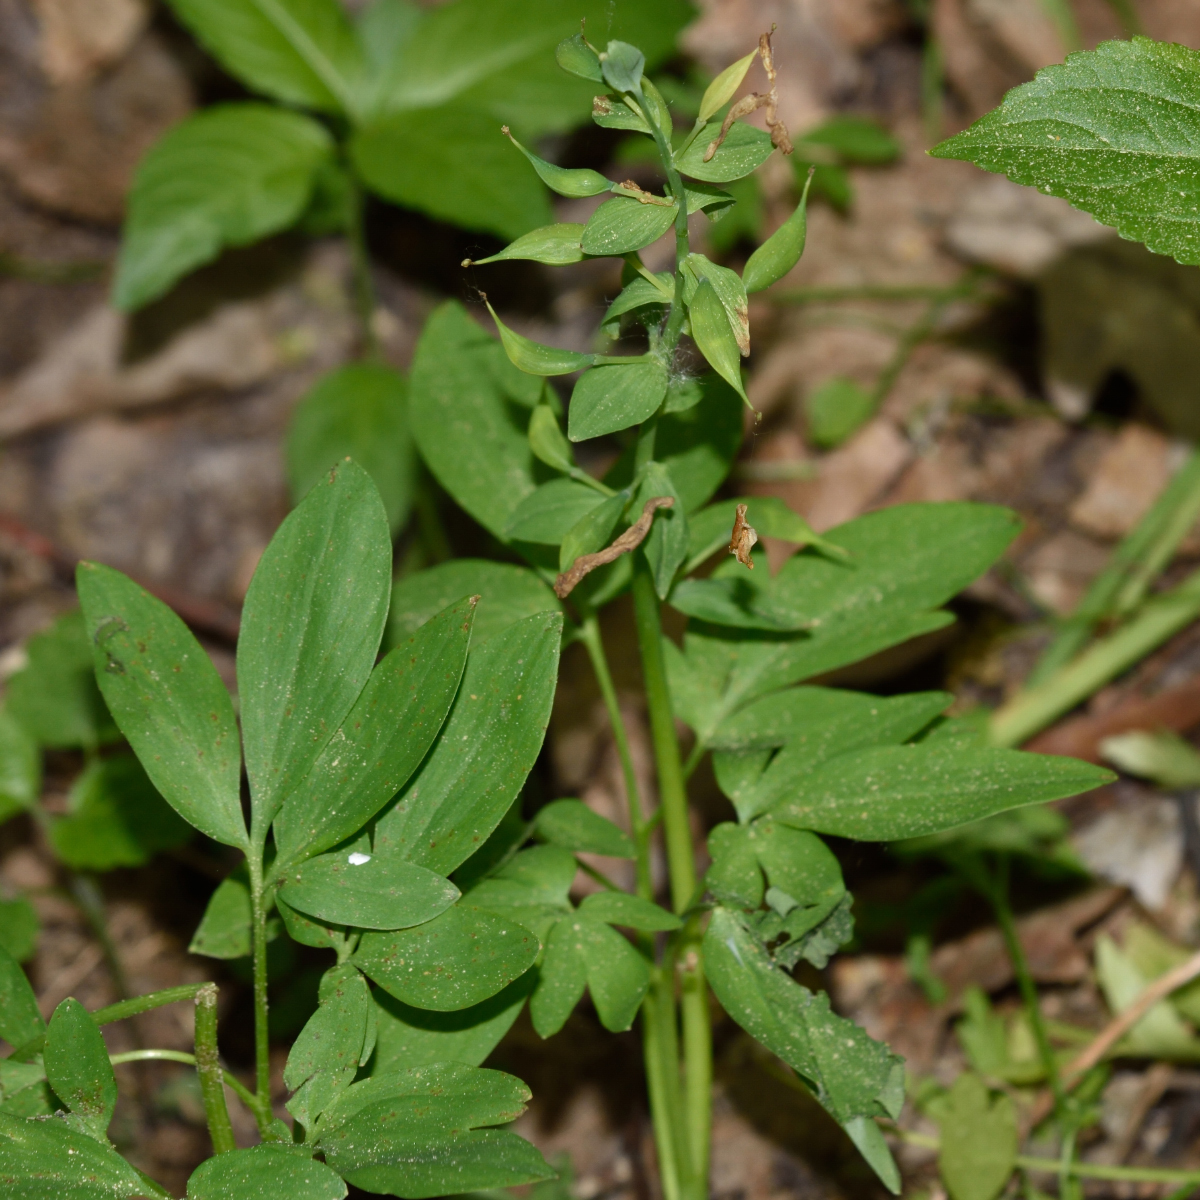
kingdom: Plantae
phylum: Tracheophyta
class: Magnoliopsida
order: Ranunculales
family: Papaveraceae
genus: Corydalis
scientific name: Corydalis cava
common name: Hollowroot
